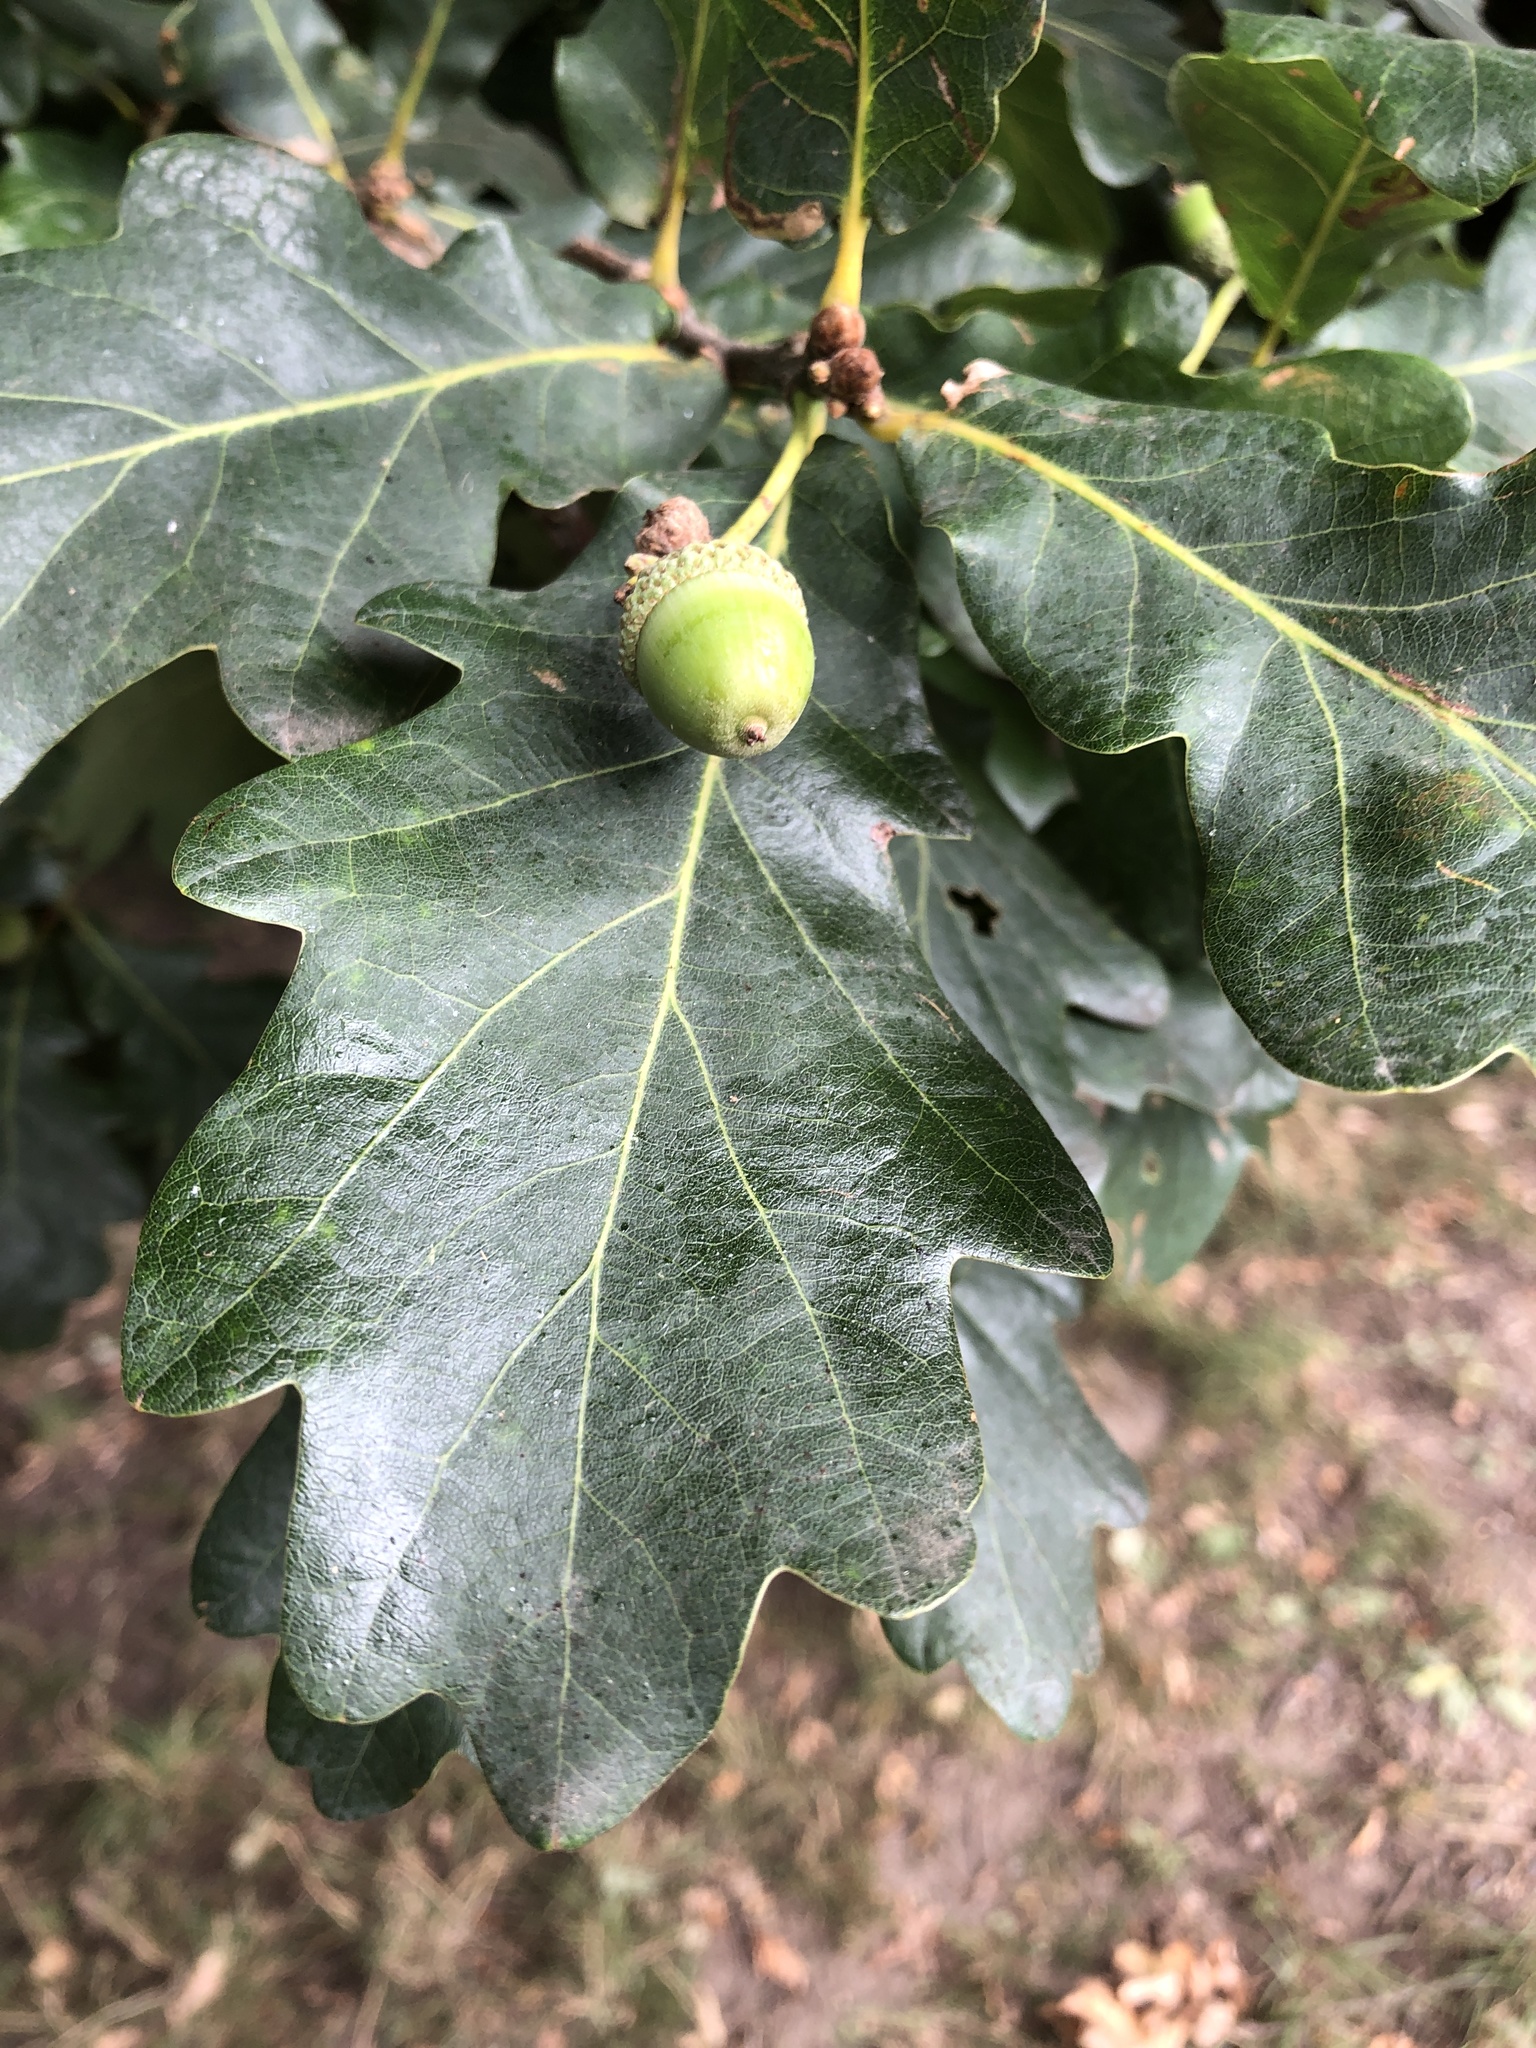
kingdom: Plantae
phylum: Tracheophyta
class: Magnoliopsida
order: Fagales
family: Fagaceae
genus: Quercus
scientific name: Quercus robur
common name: Pedunculate oak
